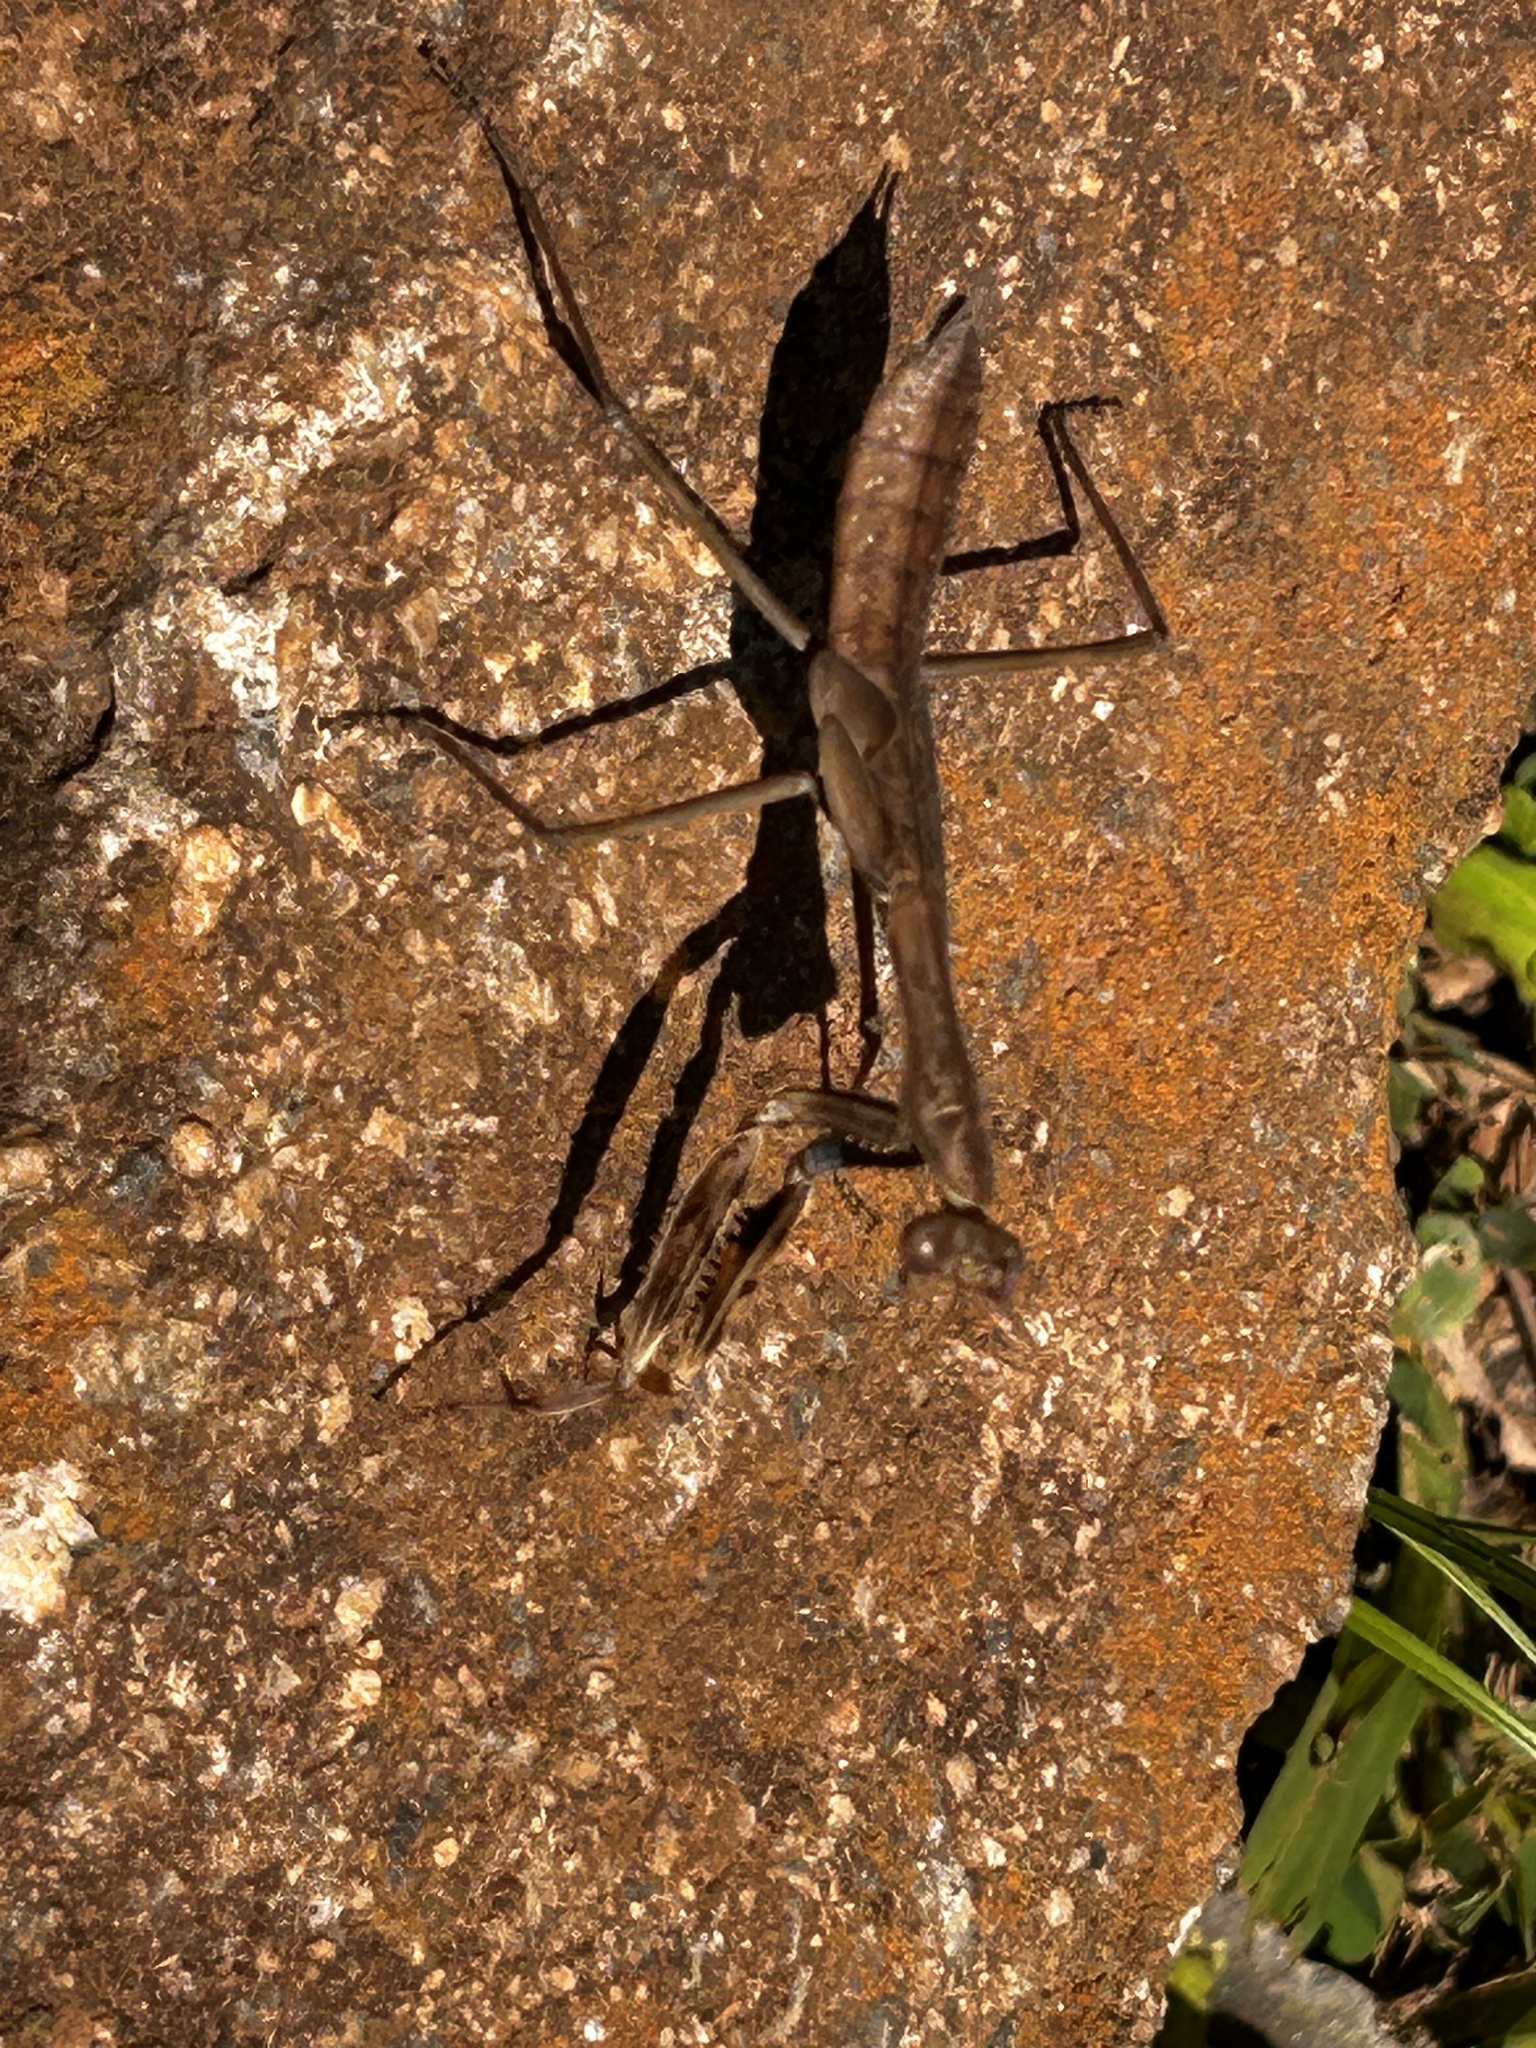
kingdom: Animalia
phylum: Arthropoda
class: Insecta
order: Mantodea
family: Mantidae
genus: Polyspilota
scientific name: Polyspilota aeruginosa
